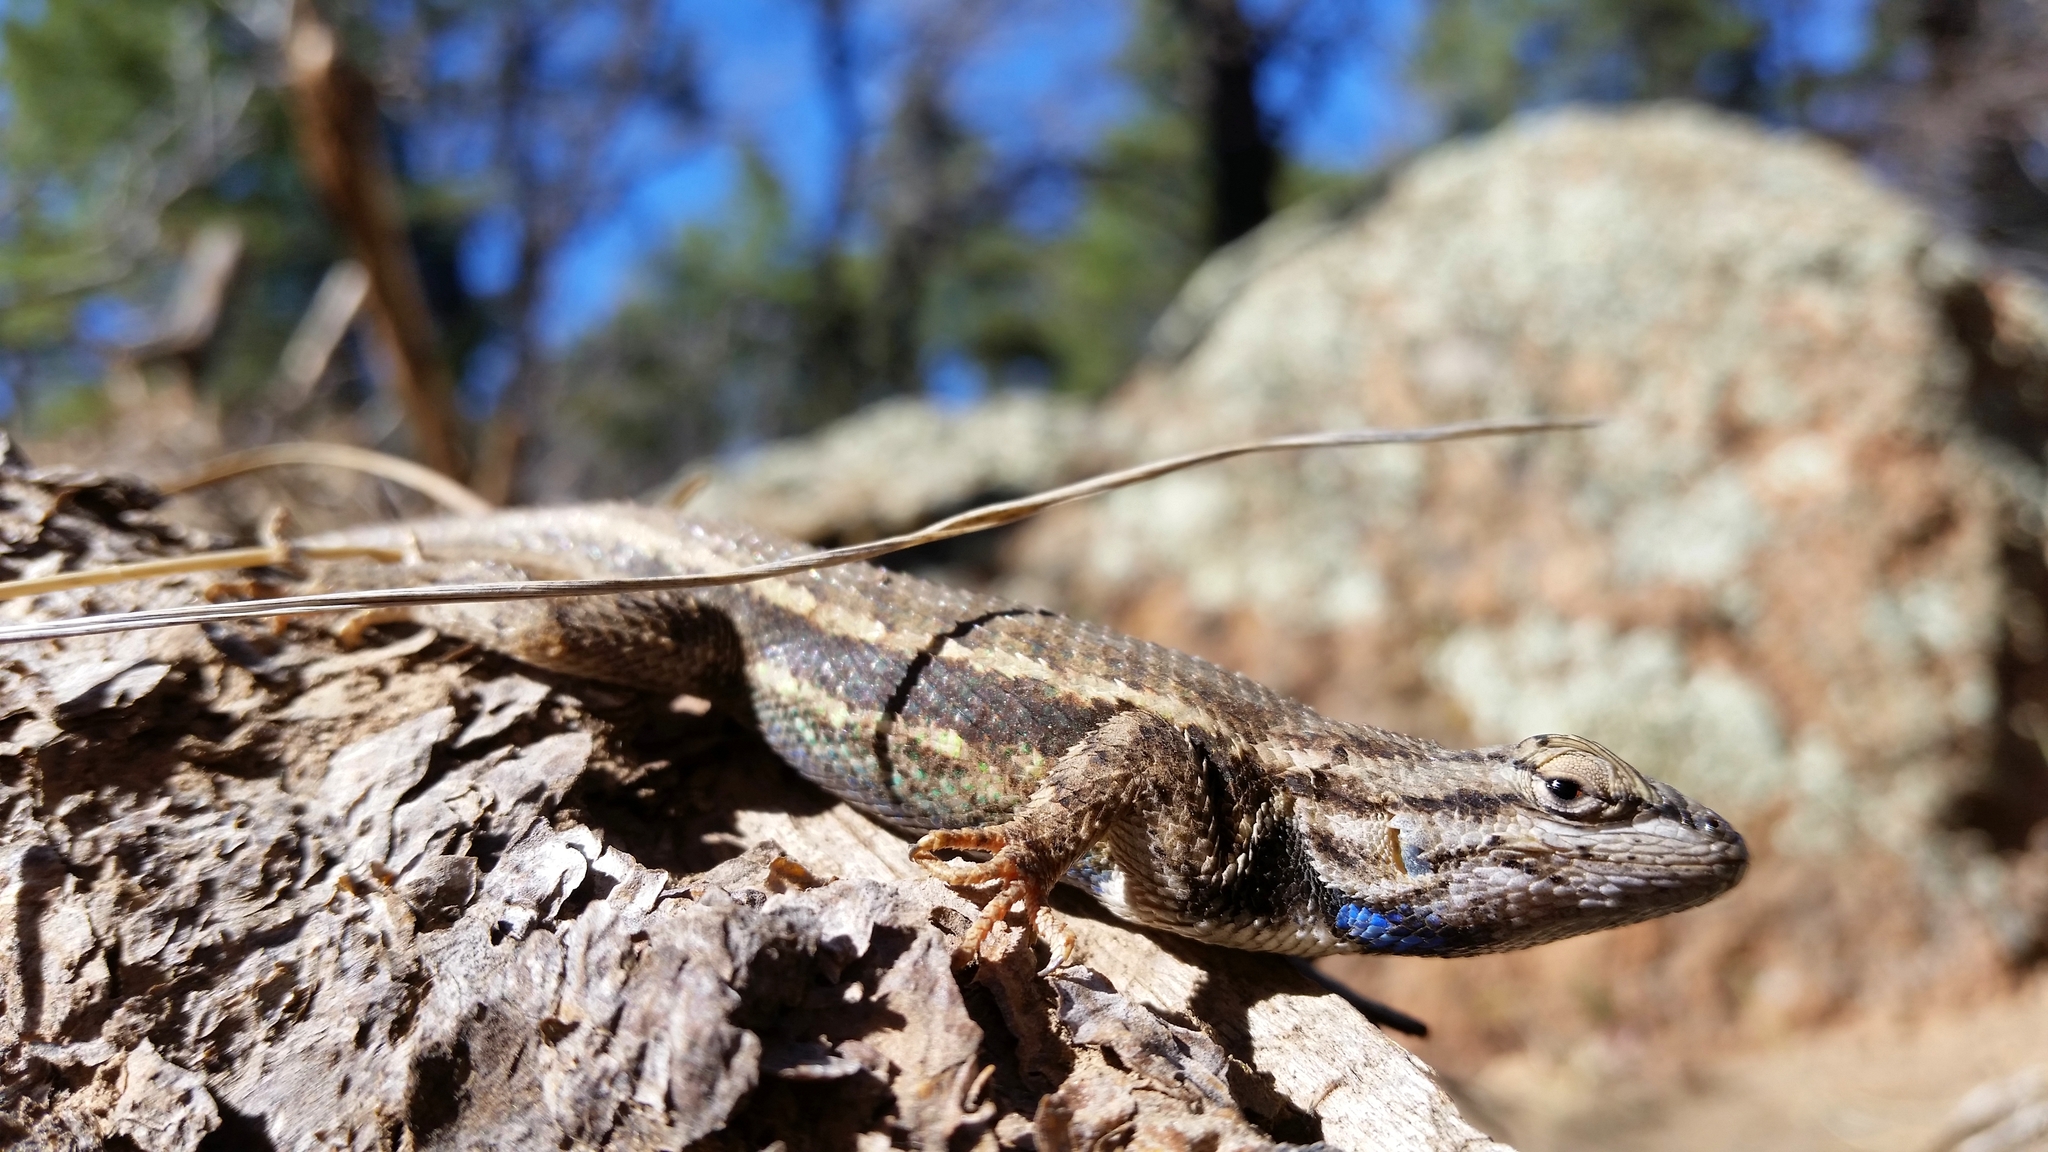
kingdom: Animalia
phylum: Chordata
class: Squamata
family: Phrynosomatidae
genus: Sceloporus
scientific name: Sceloporus tristichus
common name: Plateau fence lizard
